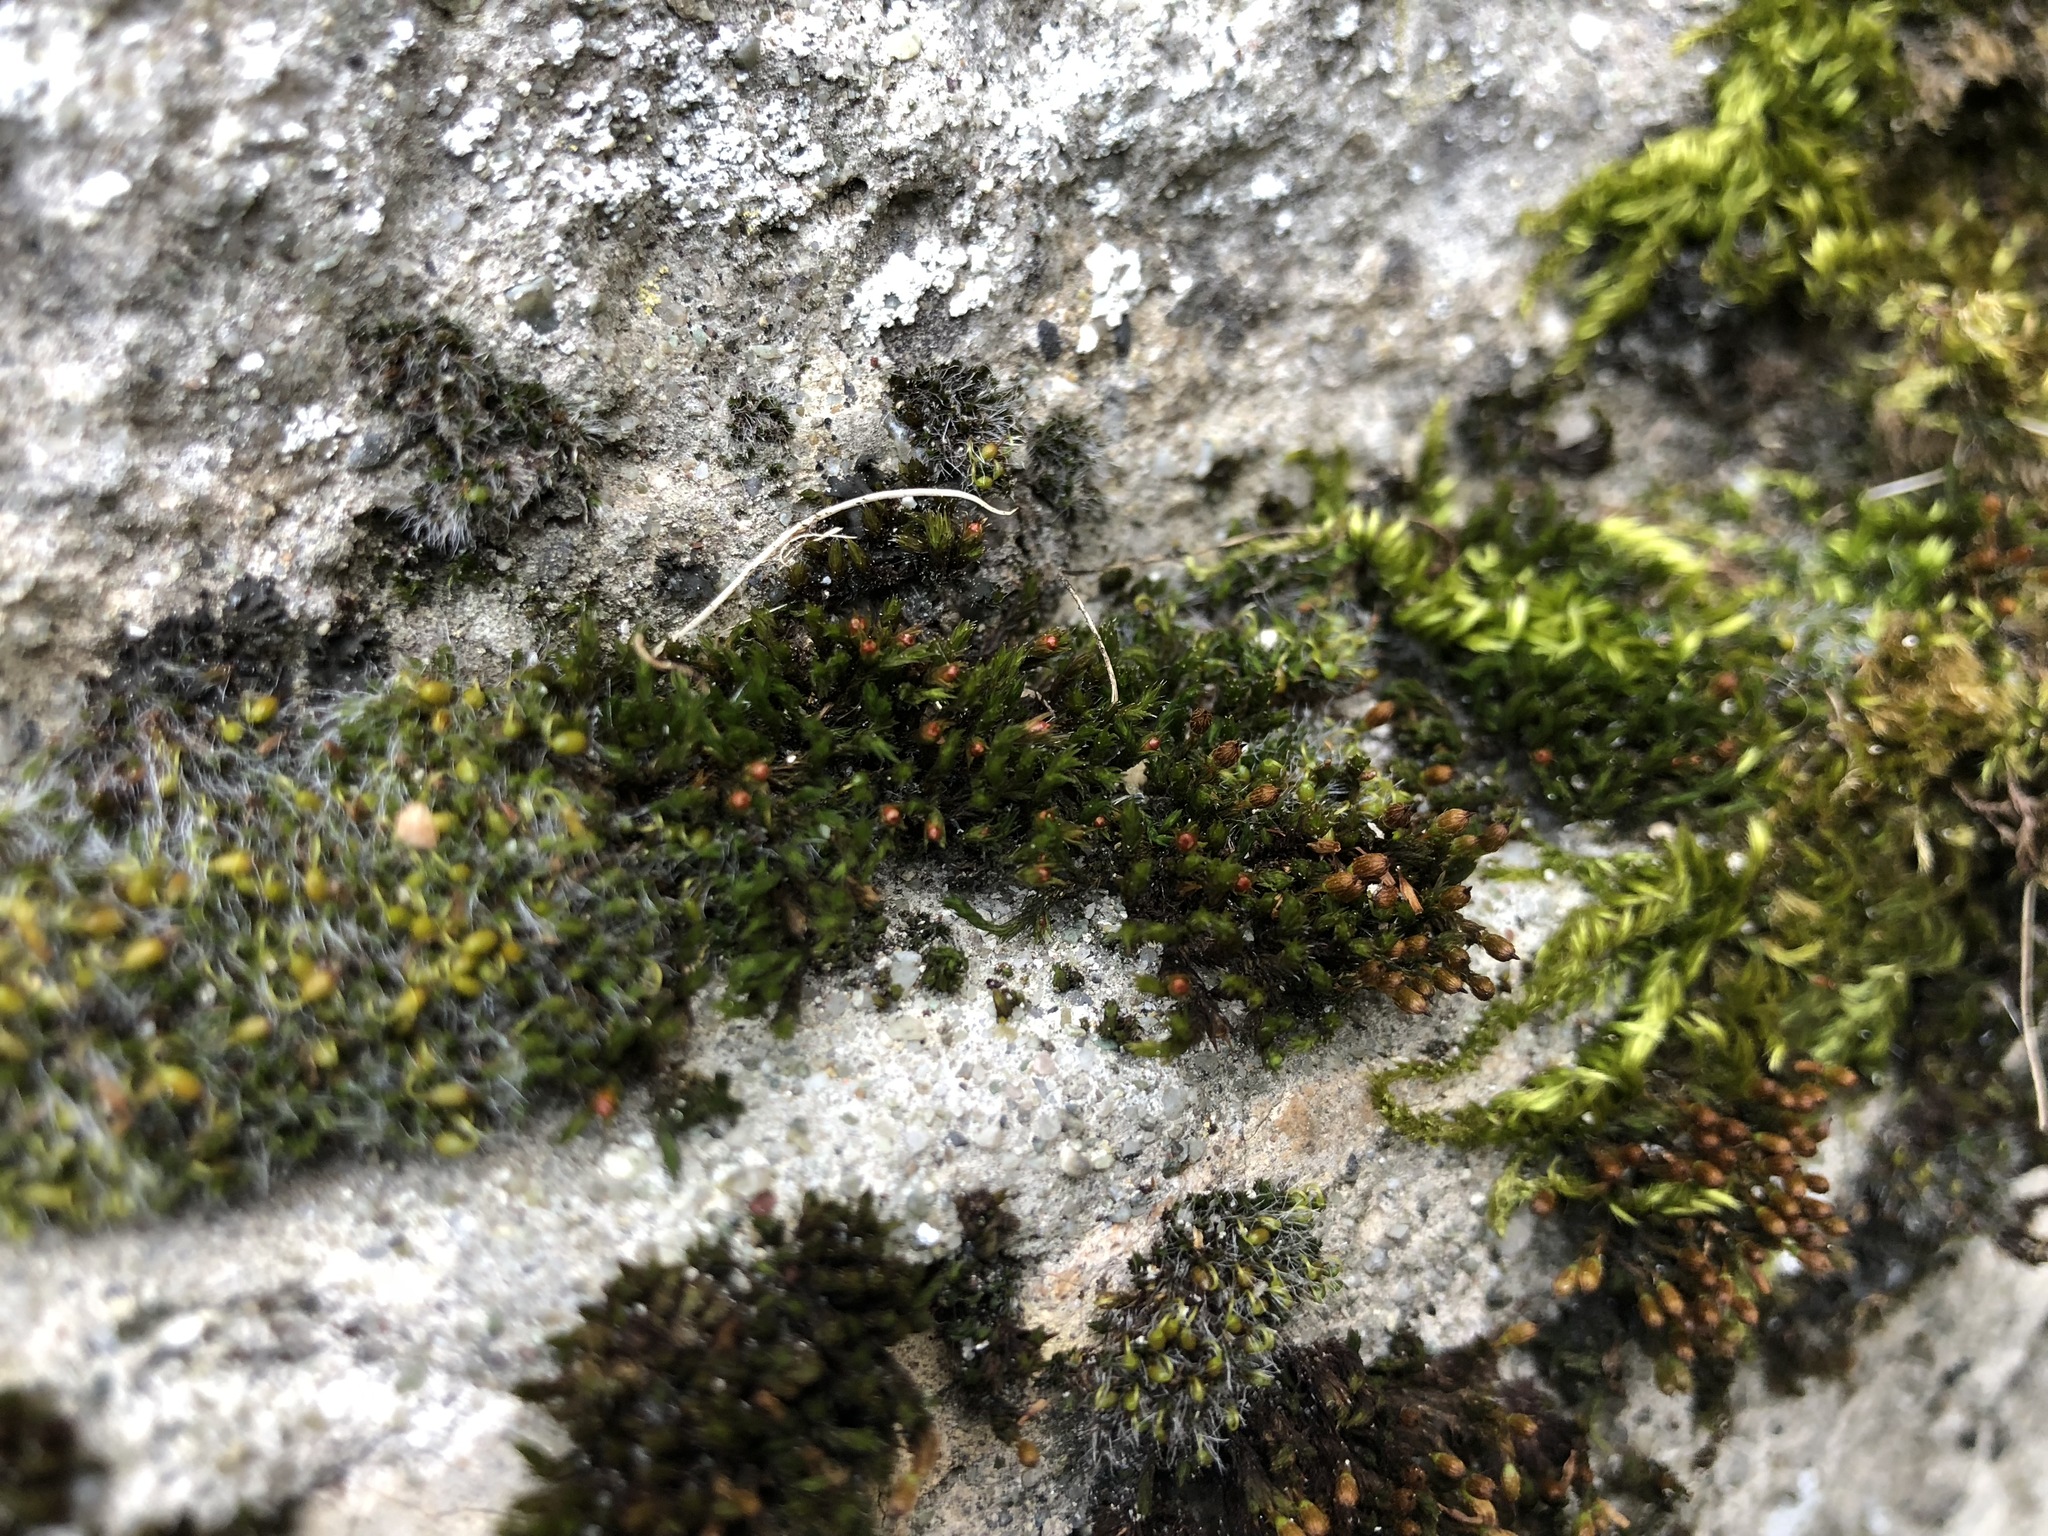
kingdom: Plantae
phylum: Bryophyta
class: Bryopsida
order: Orthotrichales
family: Orthotrichaceae
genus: Orthotrichum
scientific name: Orthotrichum anomalum
